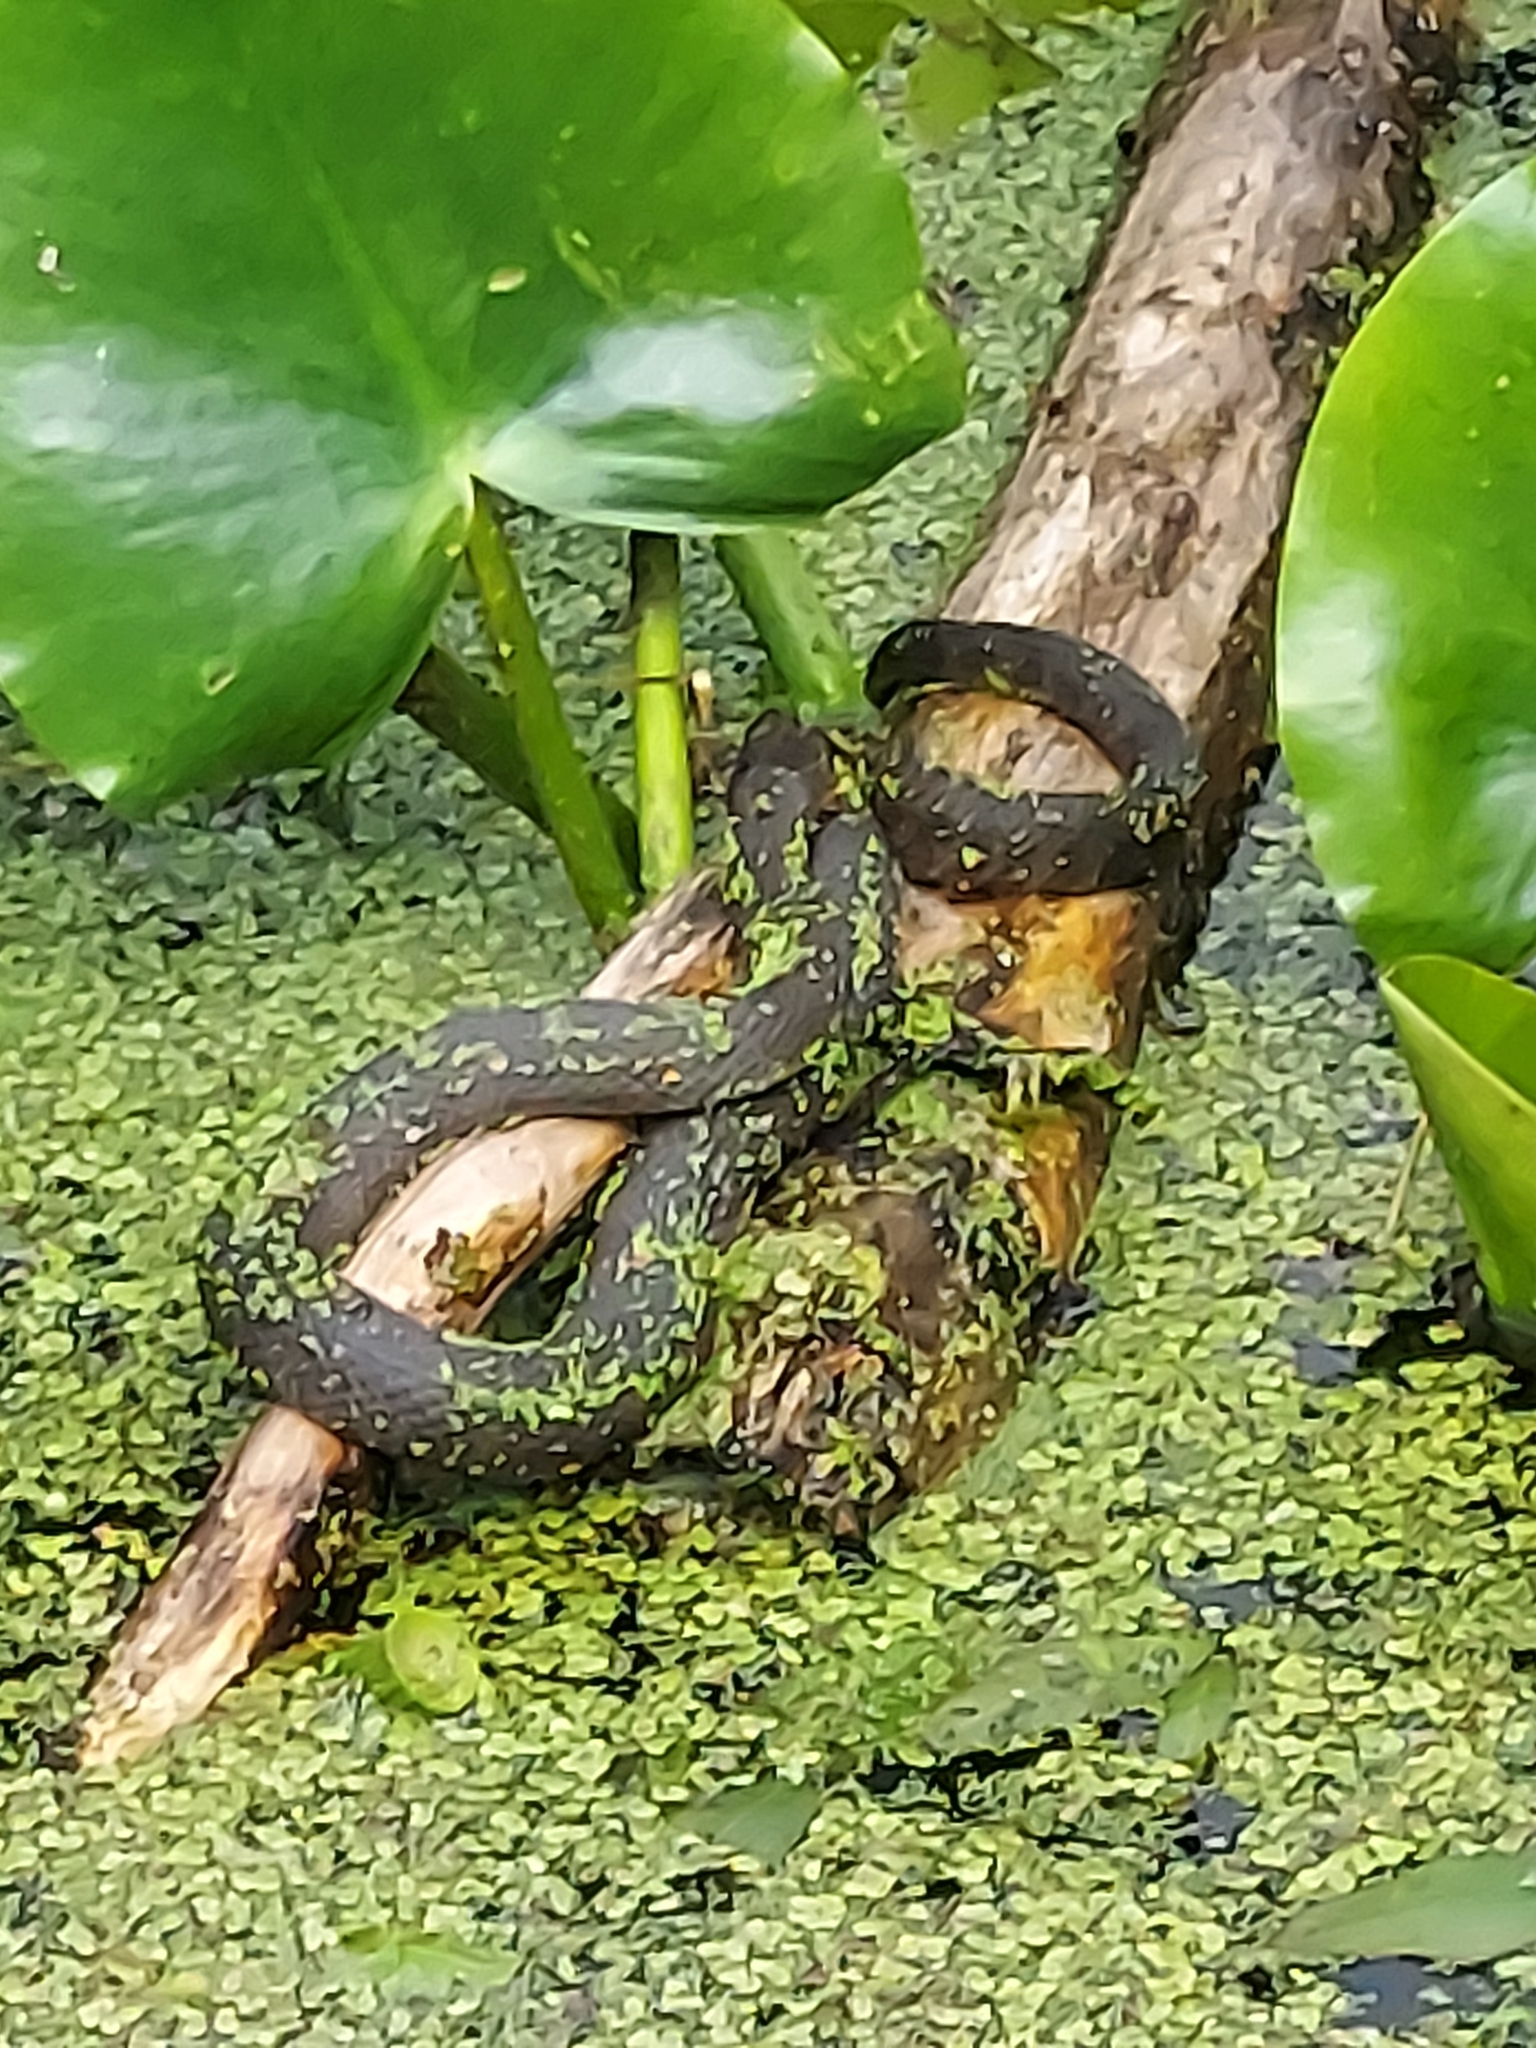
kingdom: Animalia
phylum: Chordata
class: Squamata
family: Colubridae
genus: Nerodia
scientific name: Nerodia sipedon
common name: Northern water snake
